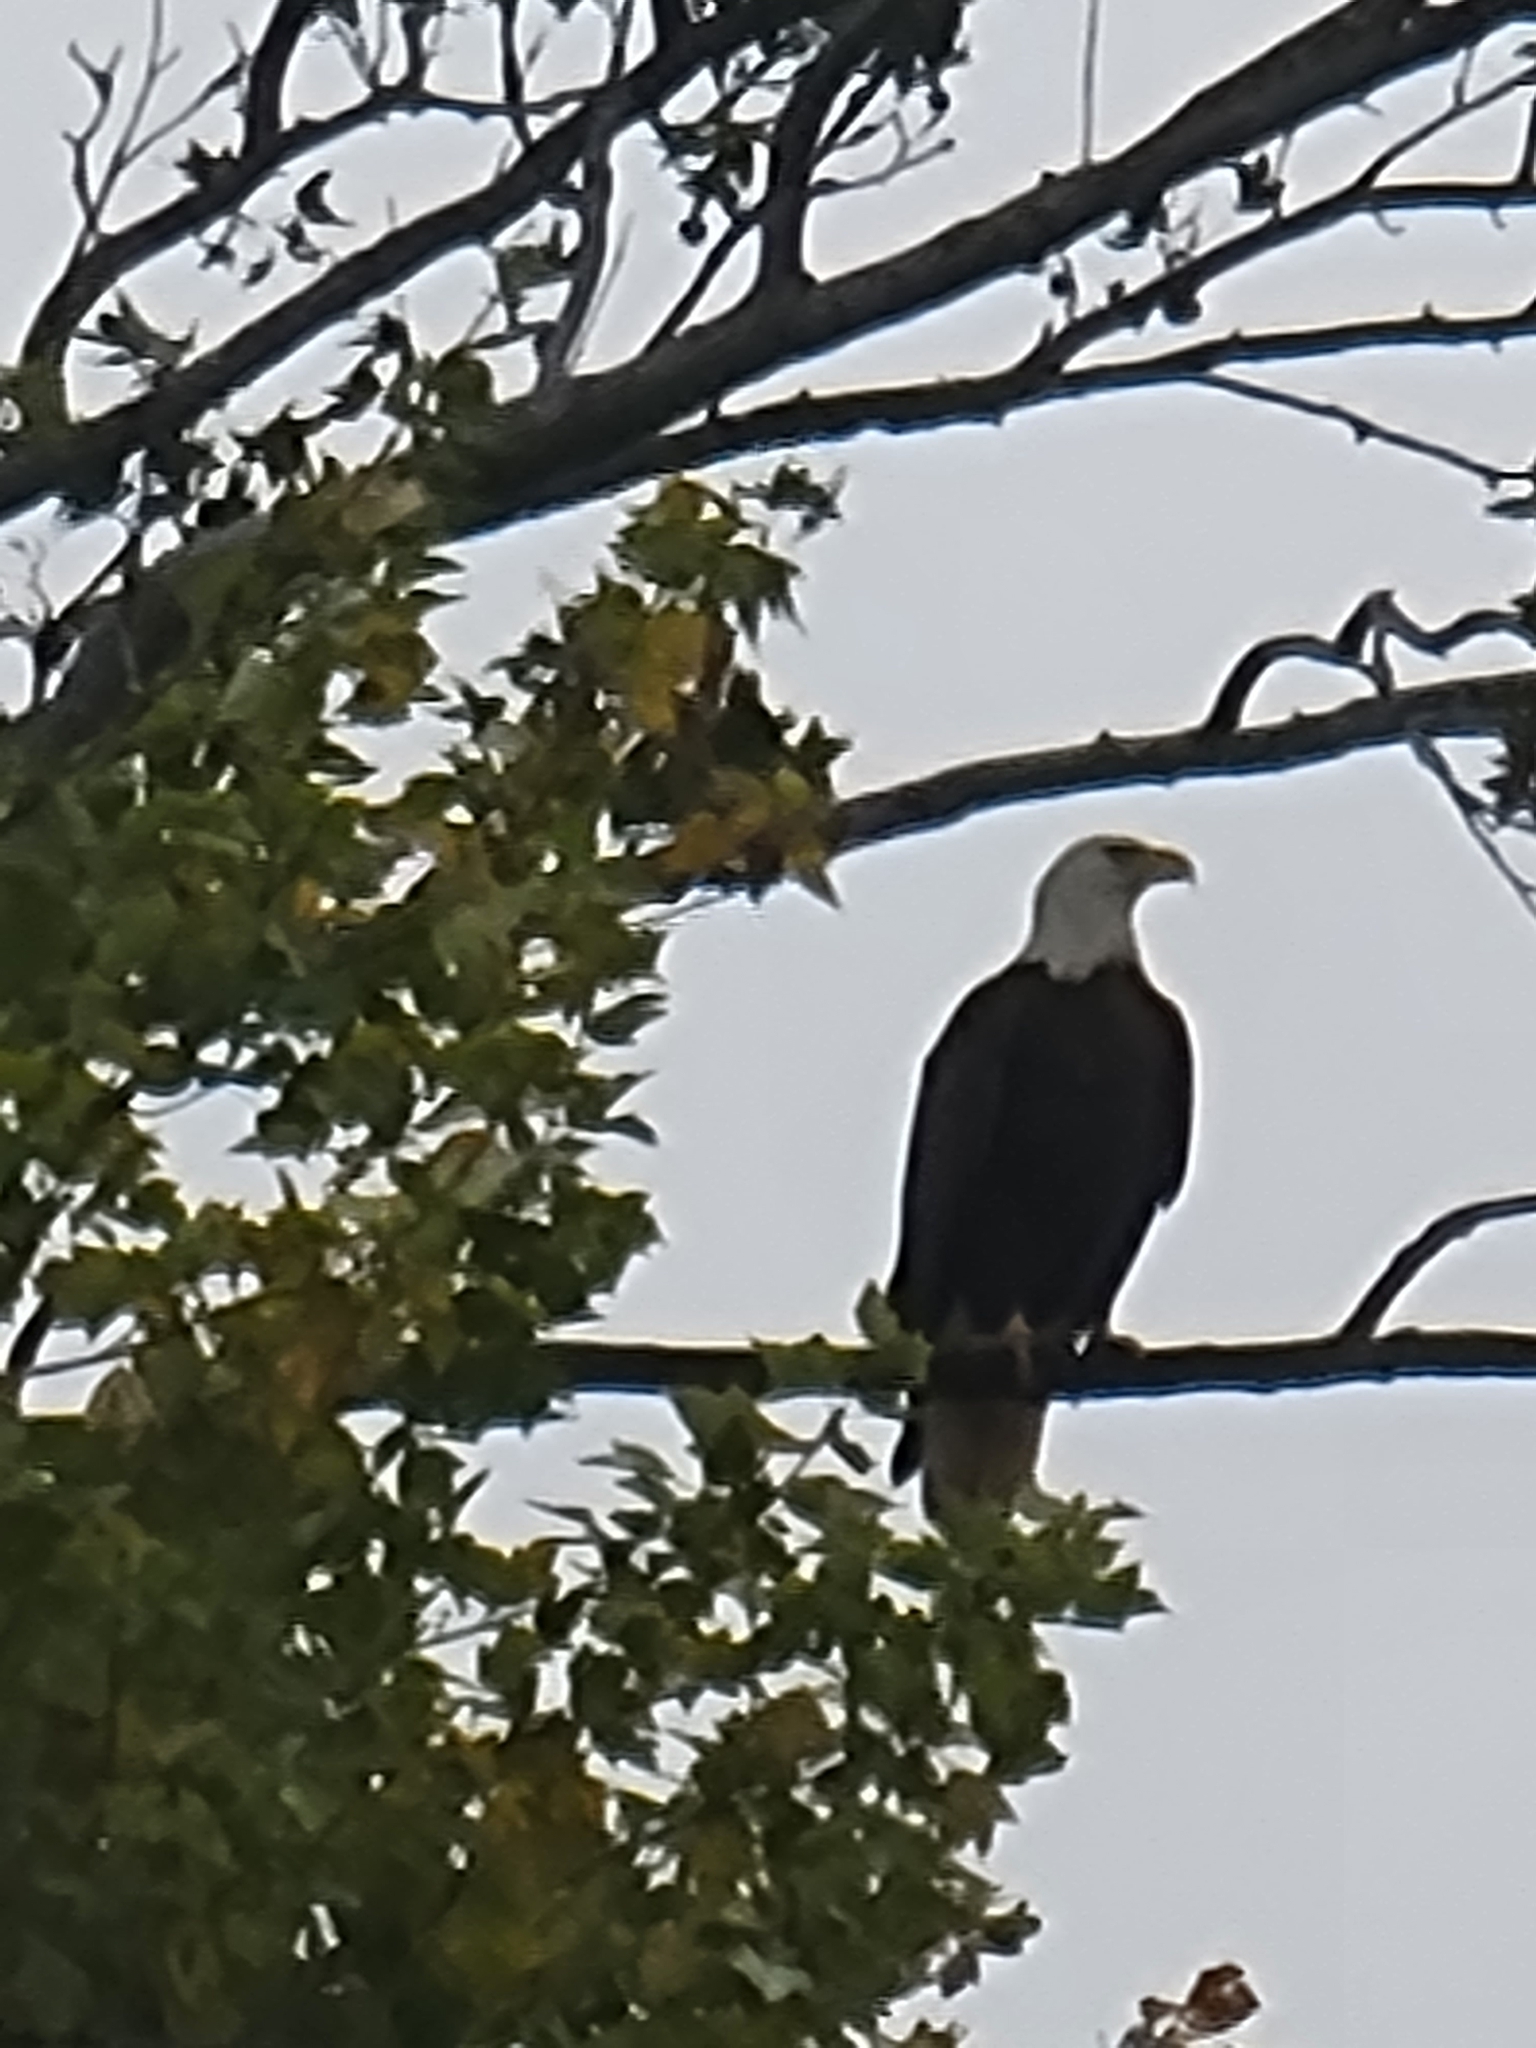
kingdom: Animalia
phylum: Chordata
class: Aves
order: Accipitriformes
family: Accipitridae
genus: Haliaeetus
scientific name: Haliaeetus leucocephalus
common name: Bald eagle
